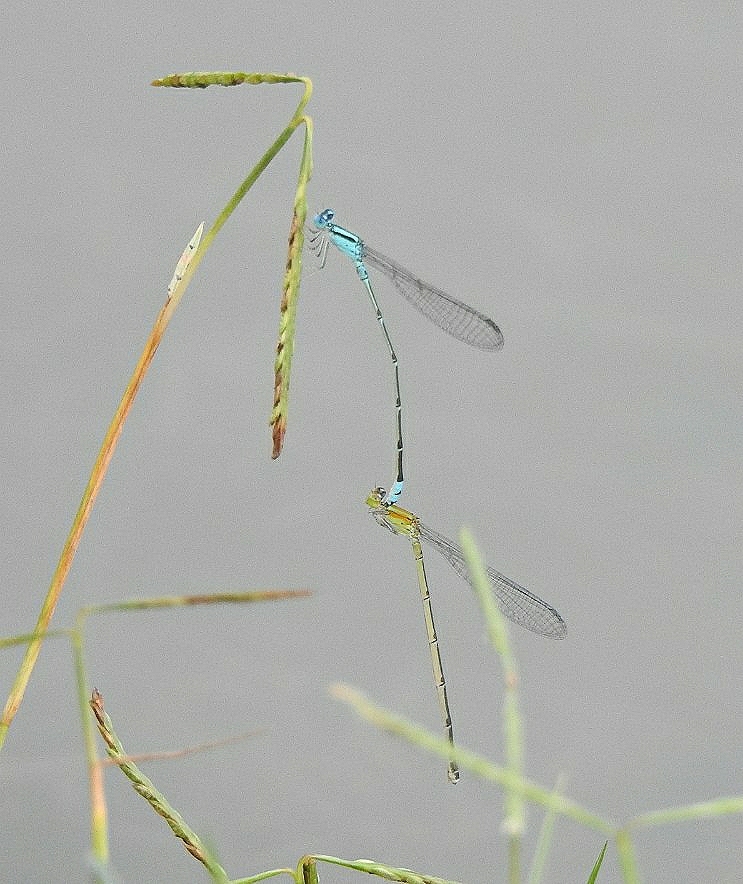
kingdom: Animalia
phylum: Arthropoda
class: Insecta
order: Odonata
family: Coenagrionidae
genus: Pseudagrion
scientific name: Pseudagrion microcephalum
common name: Blue riverdamsel
